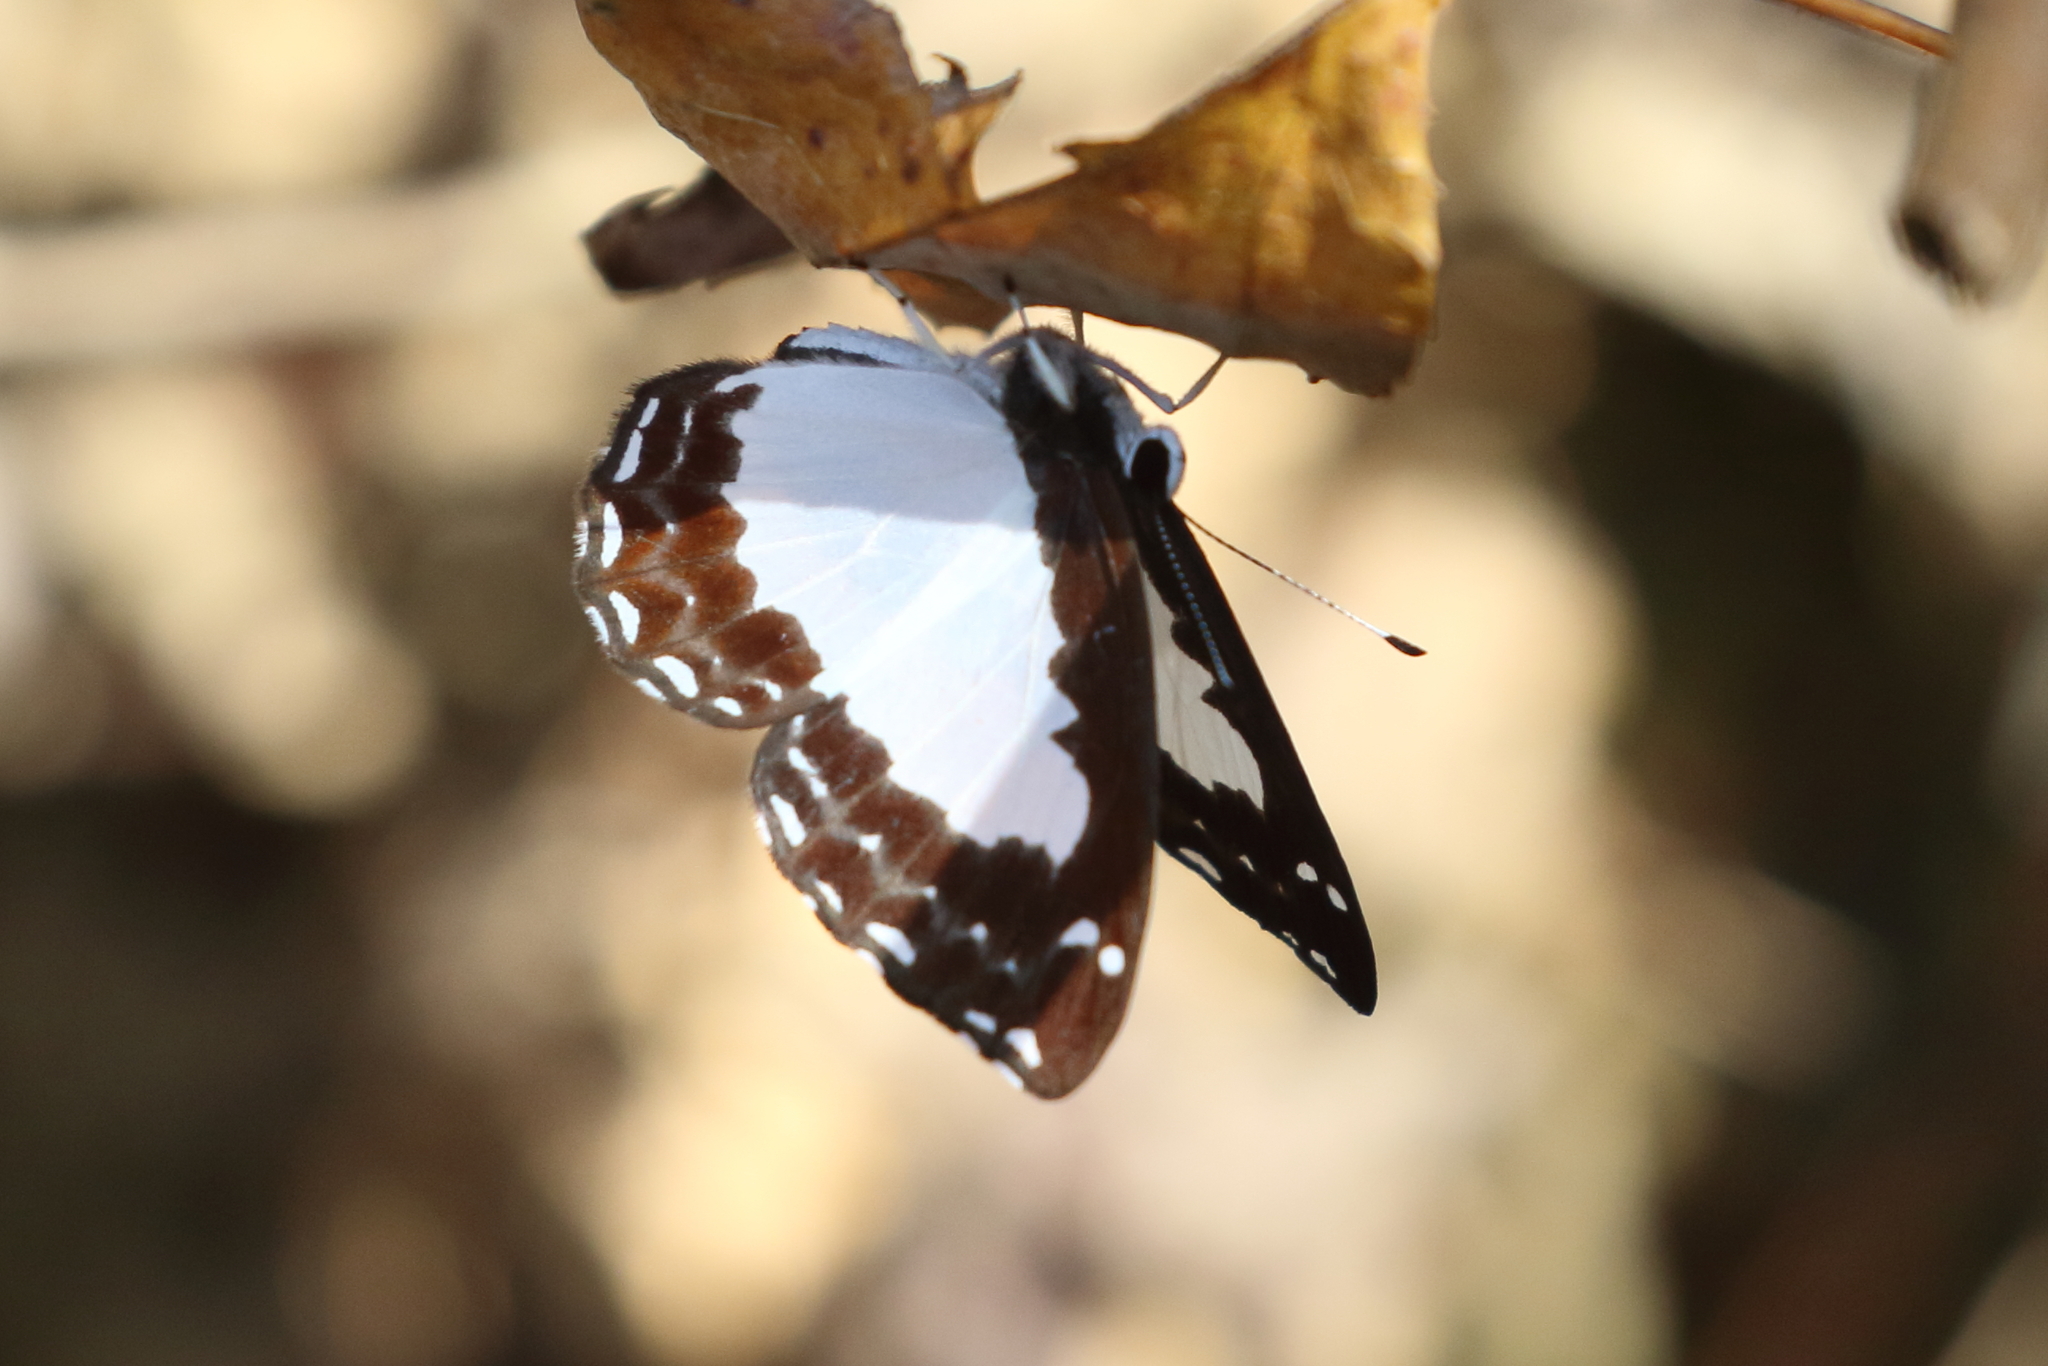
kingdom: Animalia
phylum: Arthropoda
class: Insecta
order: Lepidoptera
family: Riodinidae
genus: Stiboges
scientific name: Stiboges nymphidia
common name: Columbine
